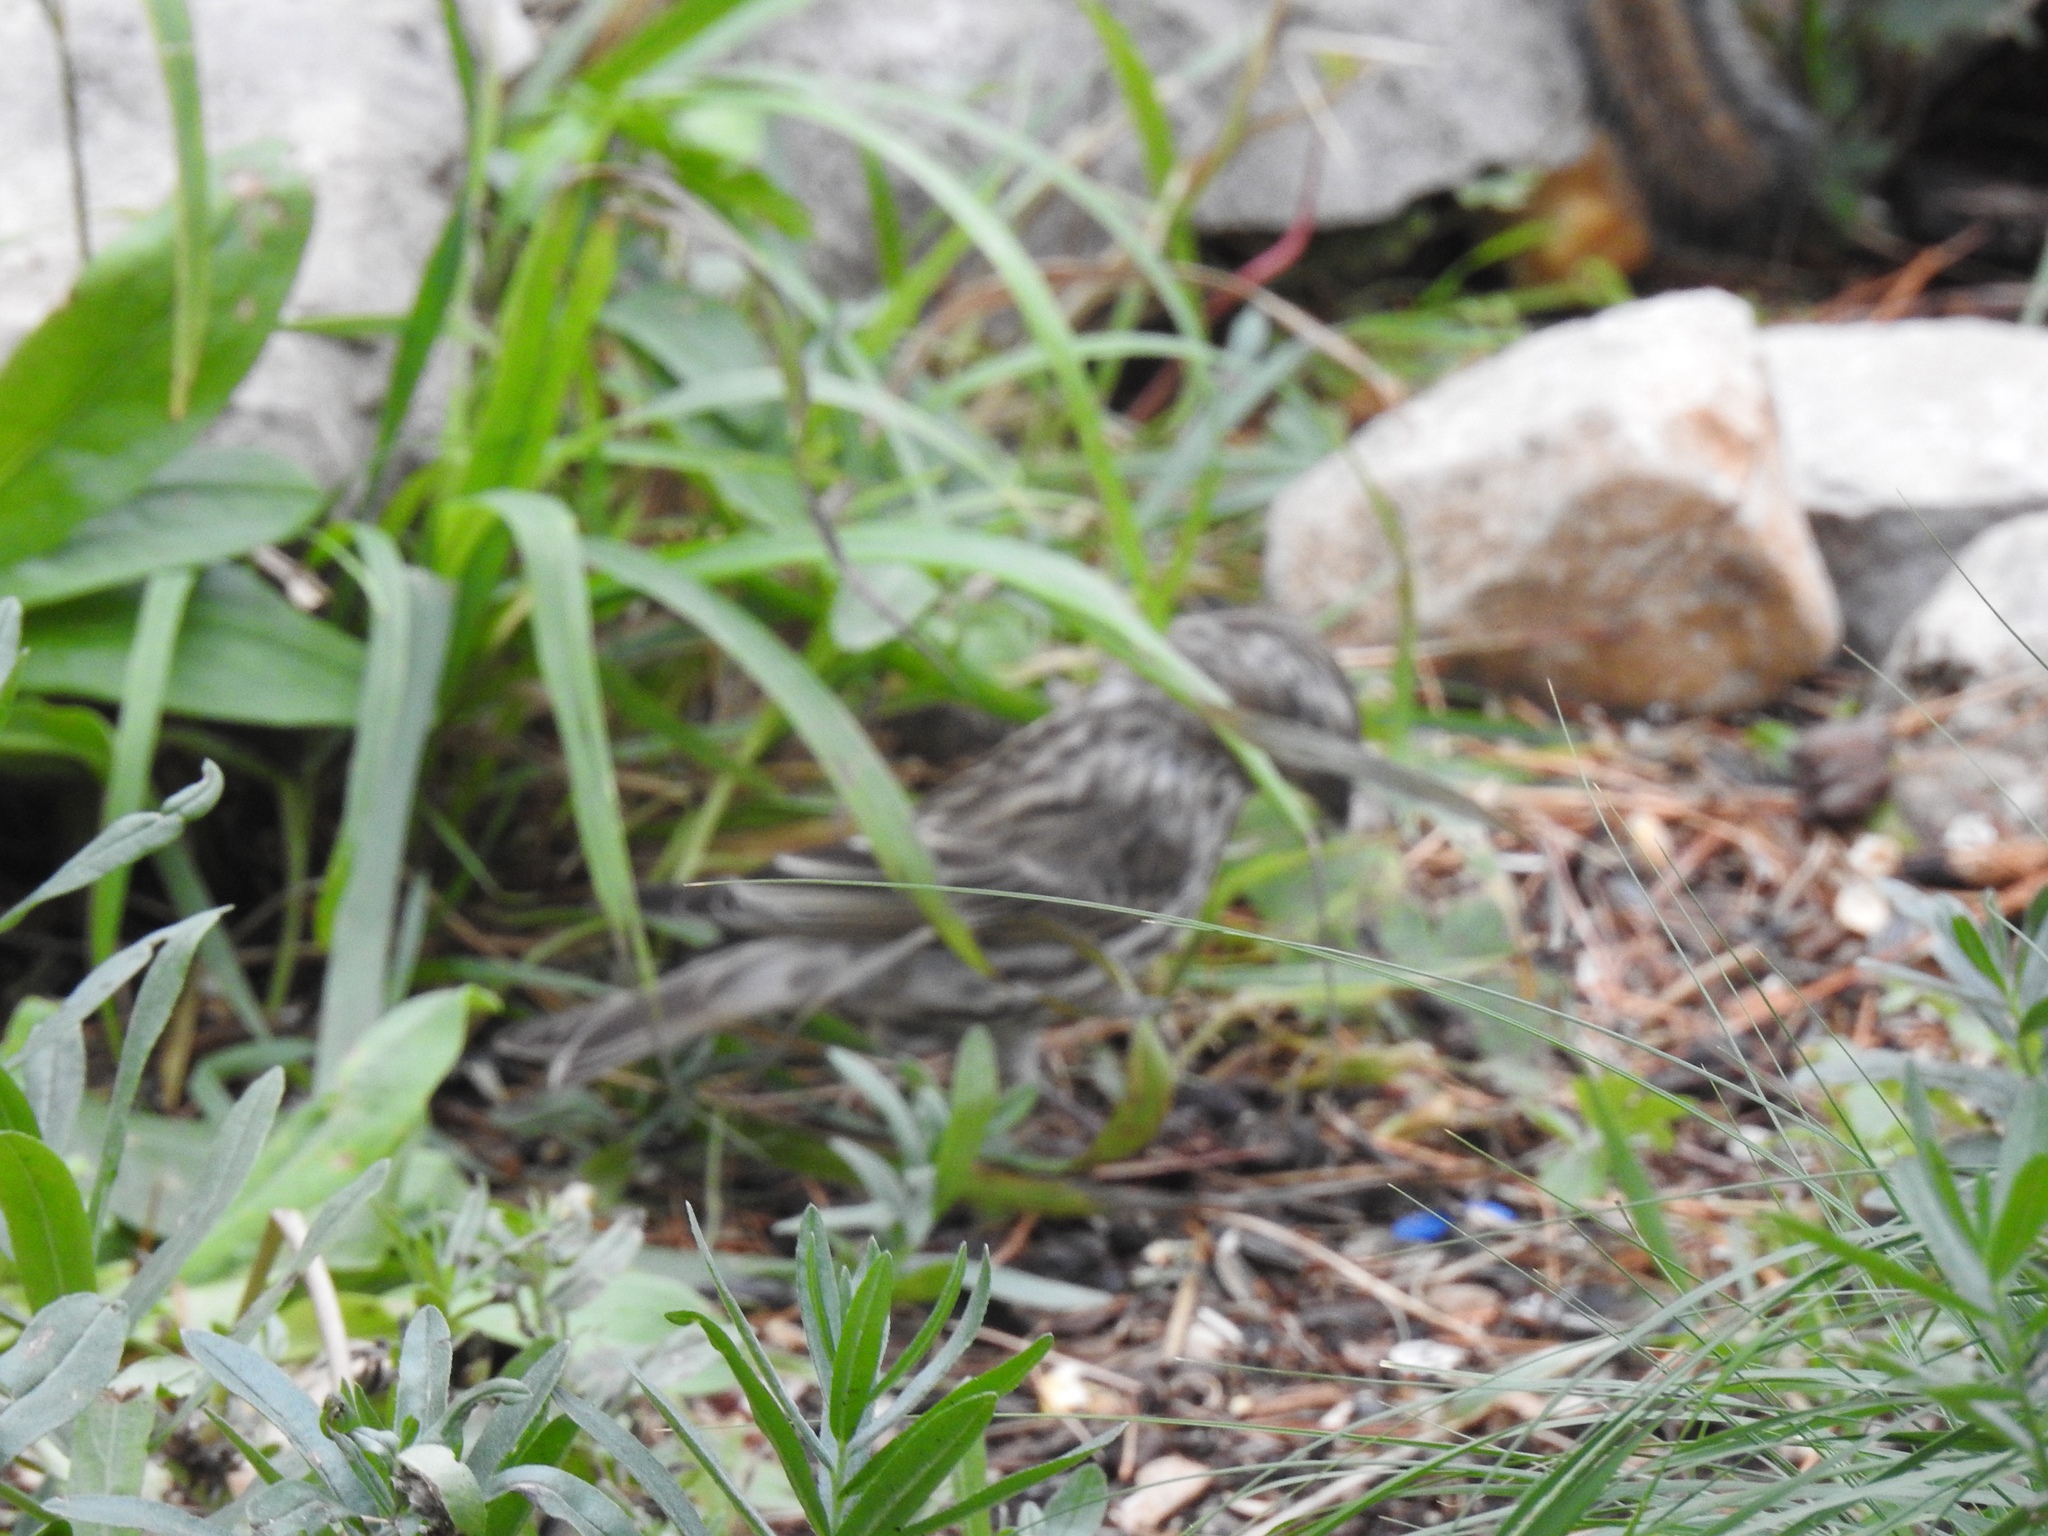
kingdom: Animalia
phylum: Chordata
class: Aves
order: Passeriformes
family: Fringillidae
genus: Haemorhous
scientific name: Haemorhous cassinii
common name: Cassin's finch
